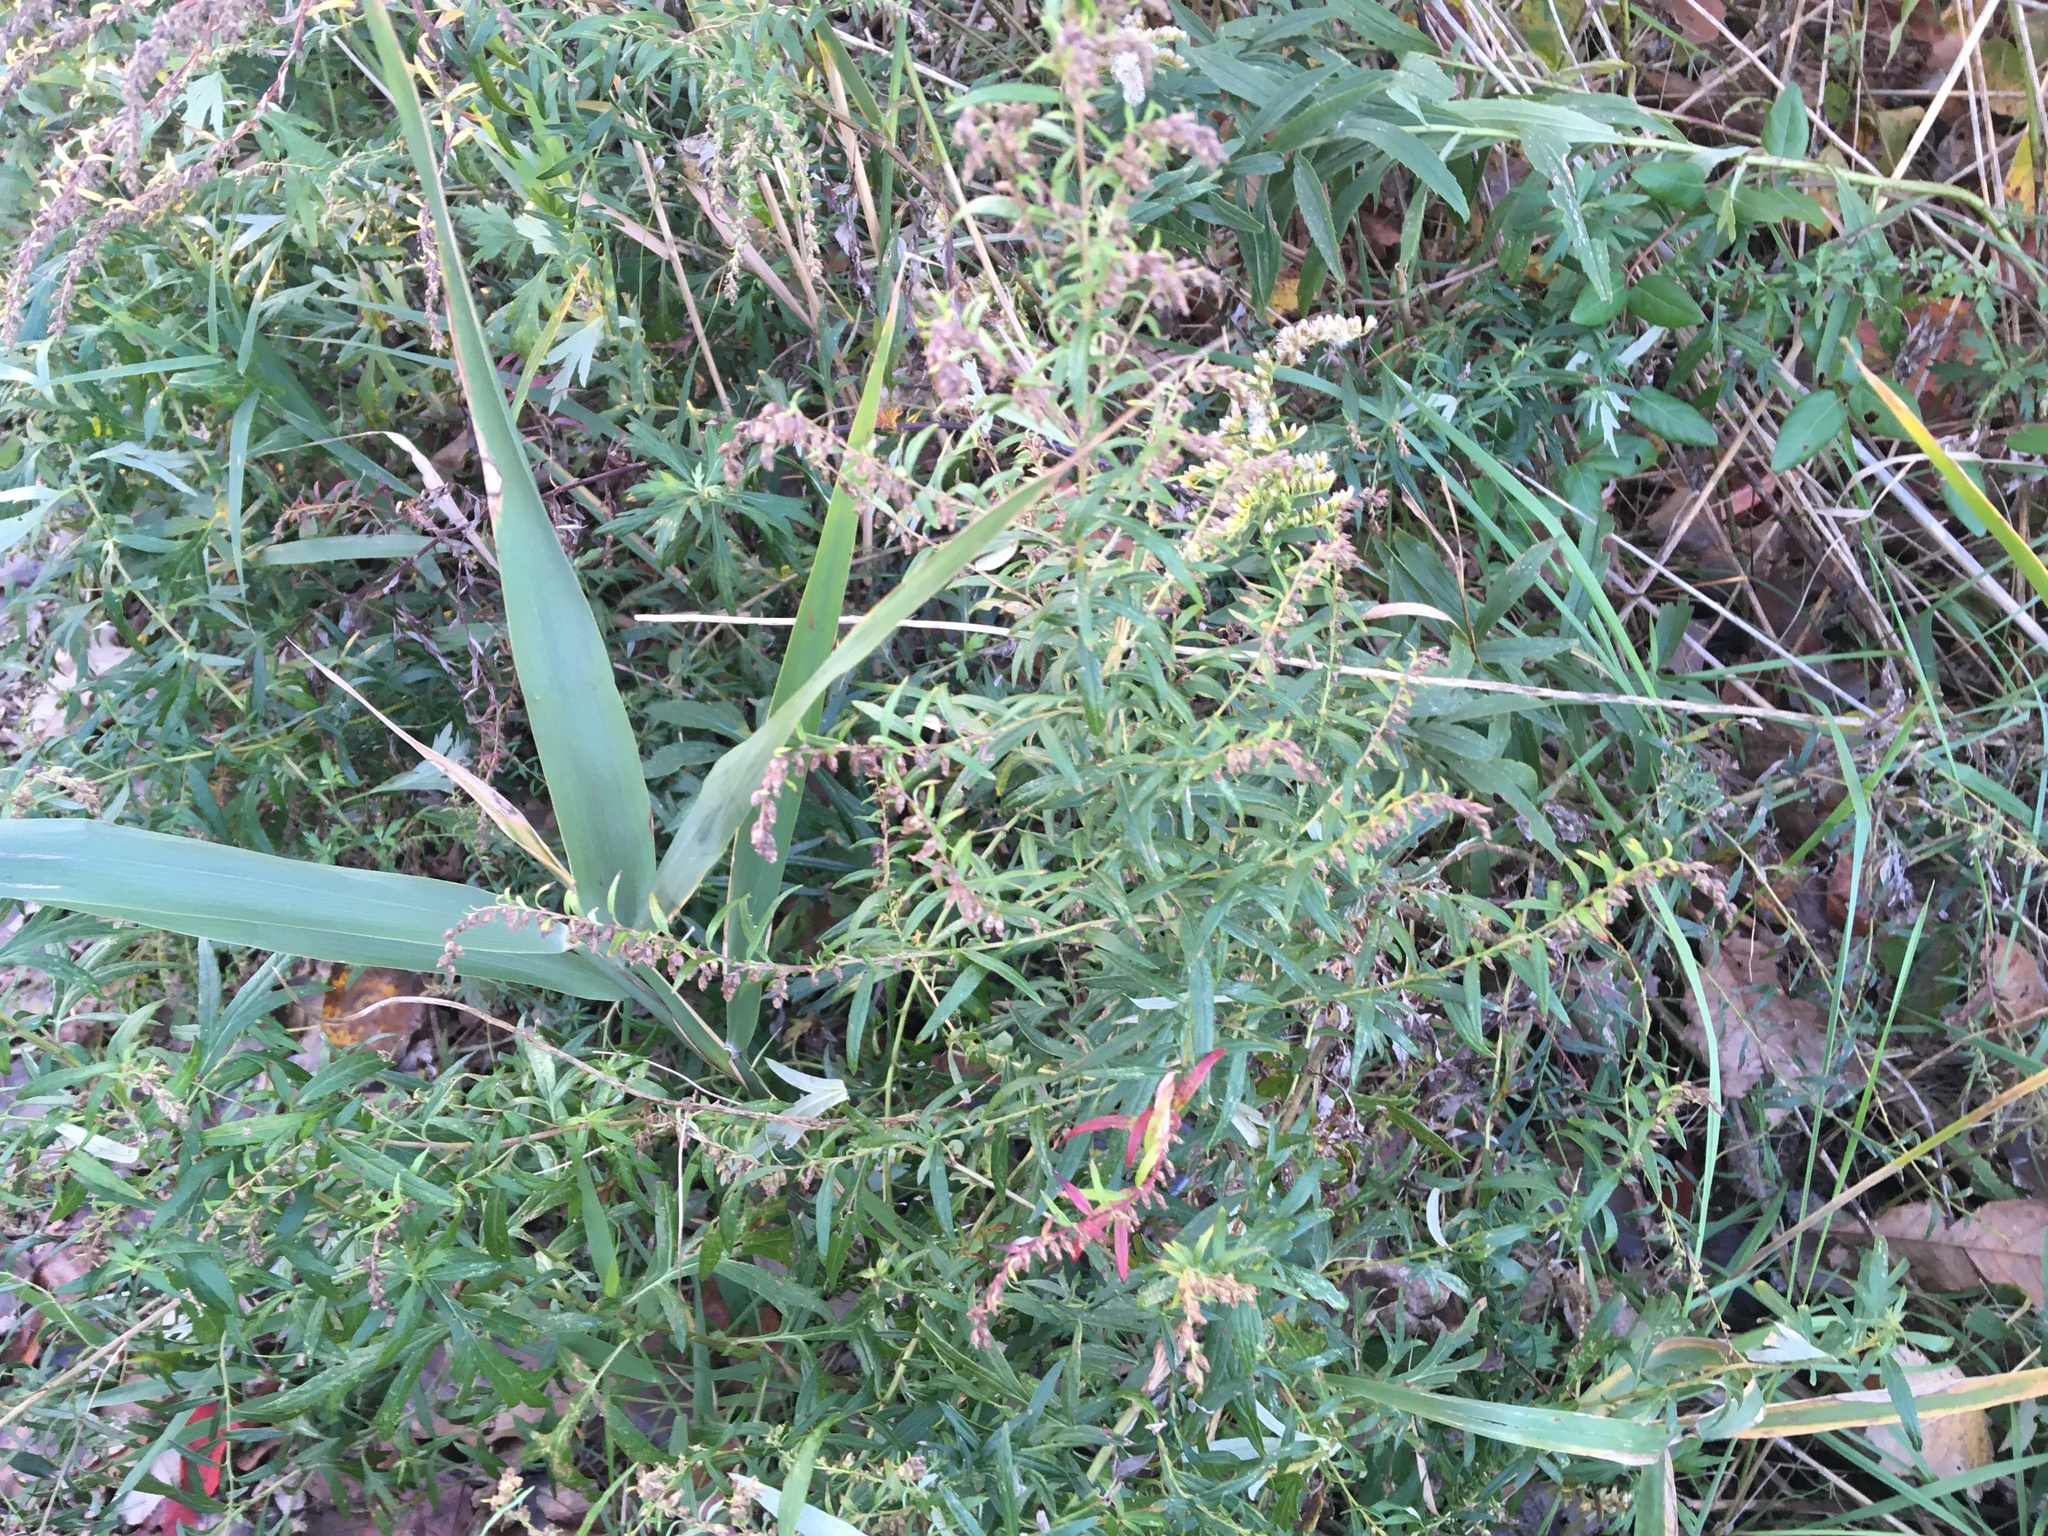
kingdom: Plantae
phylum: Tracheophyta
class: Magnoliopsida
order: Asterales
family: Asteraceae
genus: Artemisia
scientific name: Artemisia vulgaris
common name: Mugwort
